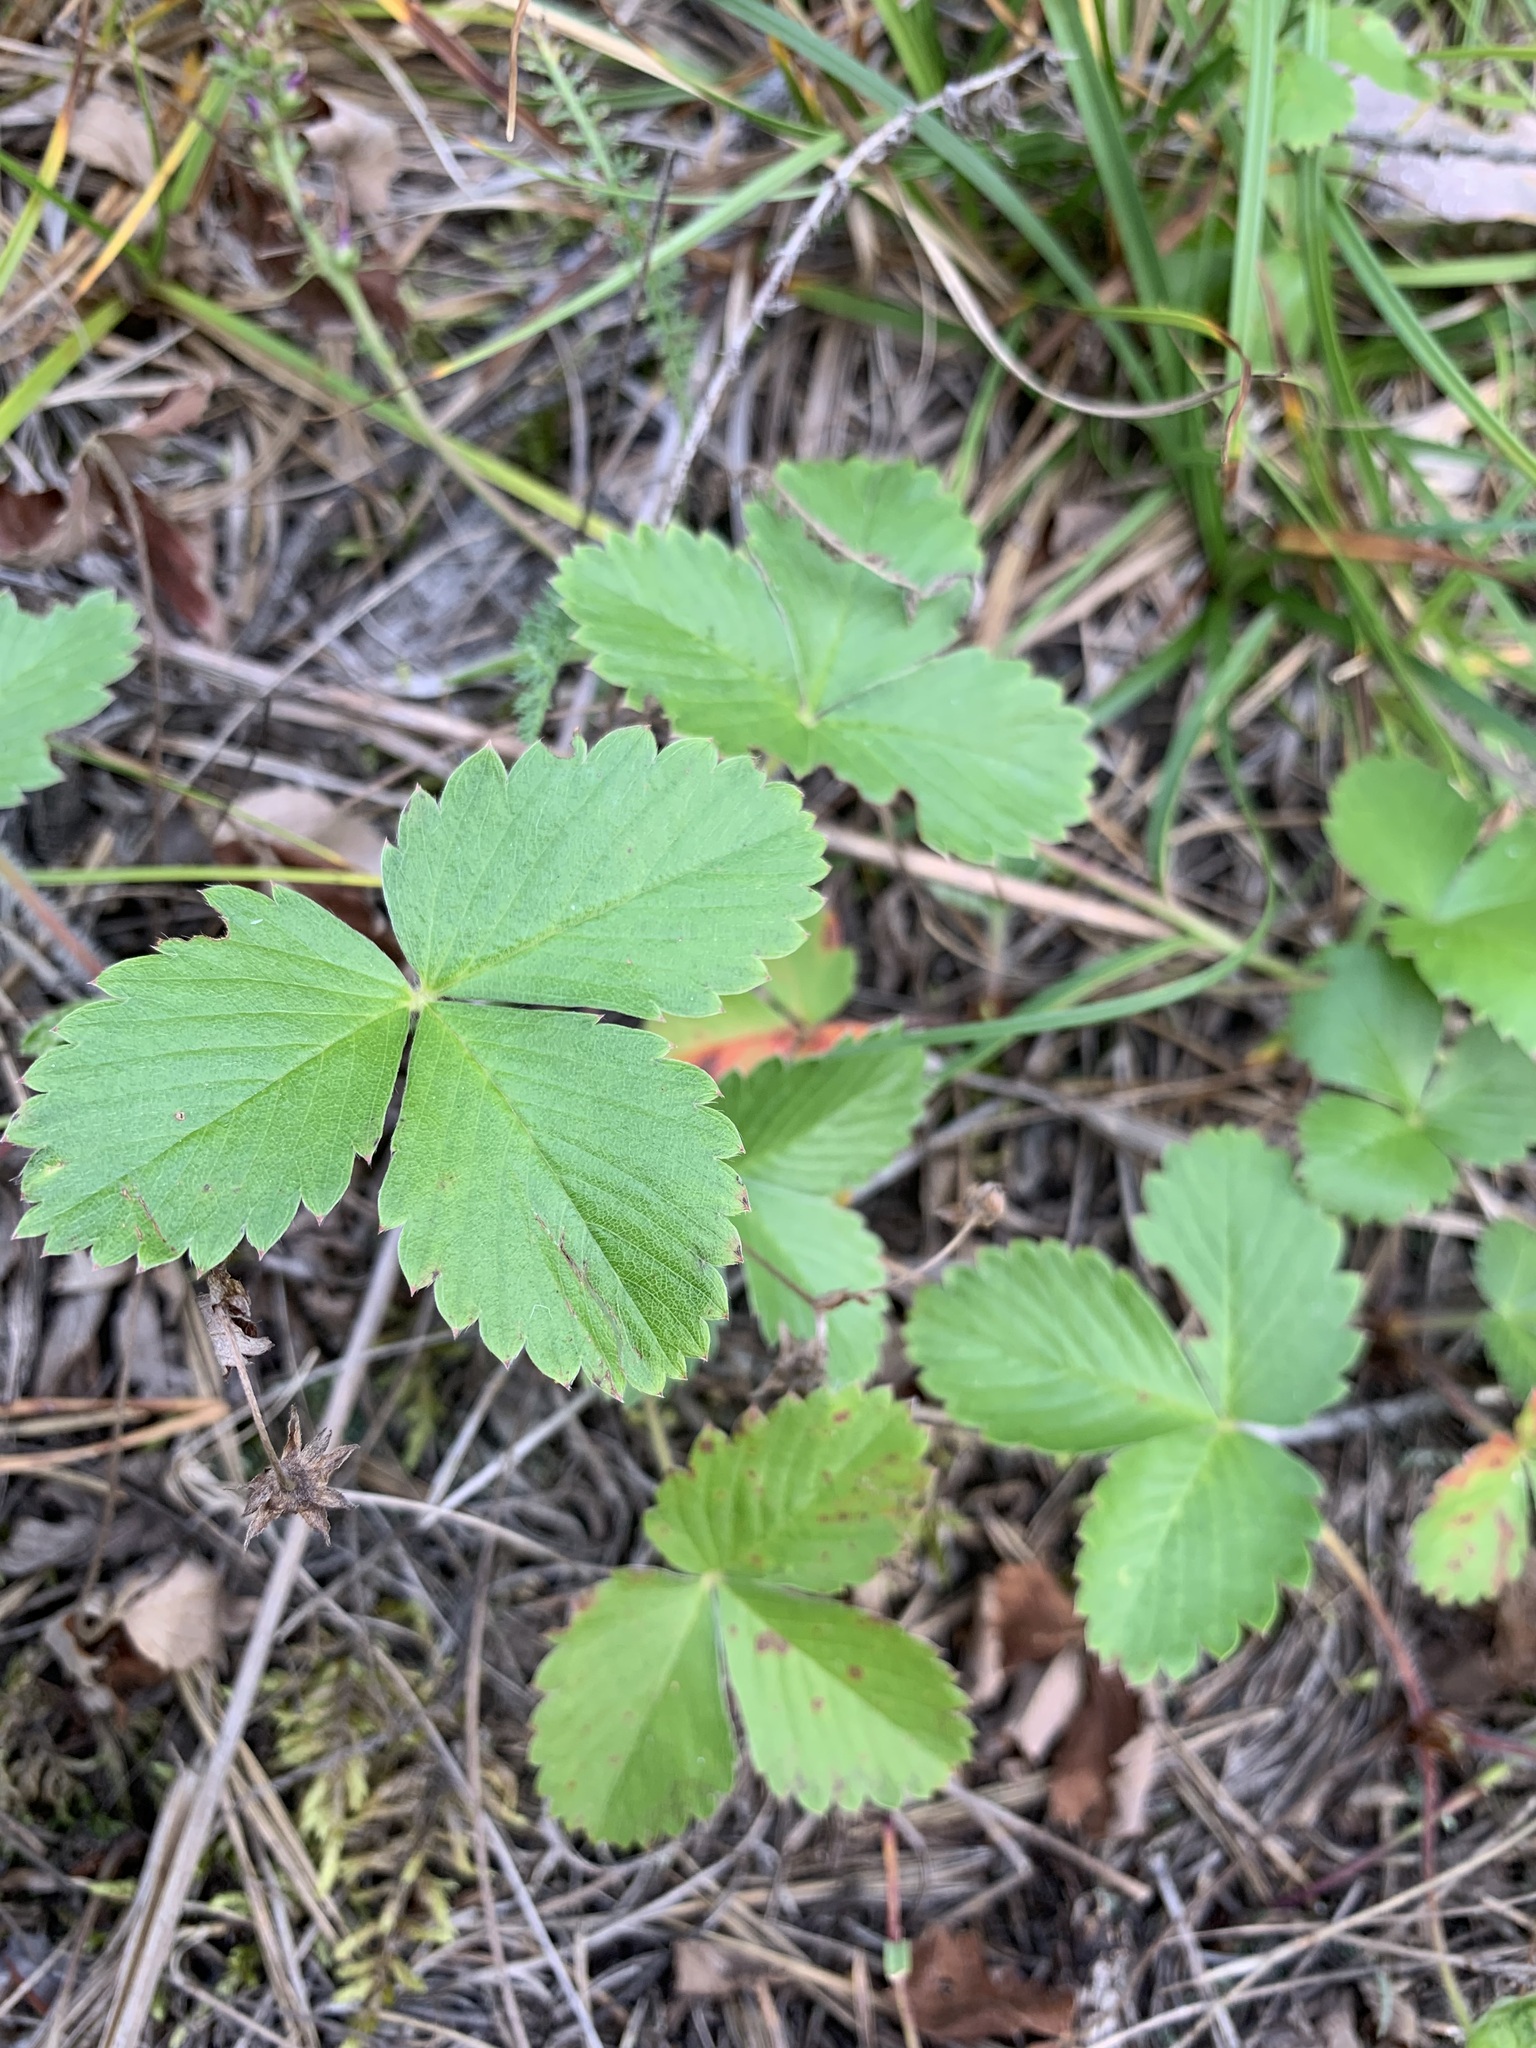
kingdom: Plantae
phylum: Tracheophyta
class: Magnoliopsida
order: Rosales
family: Rosaceae
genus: Fragaria
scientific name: Fragaria vesca
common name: Wild strawberry
